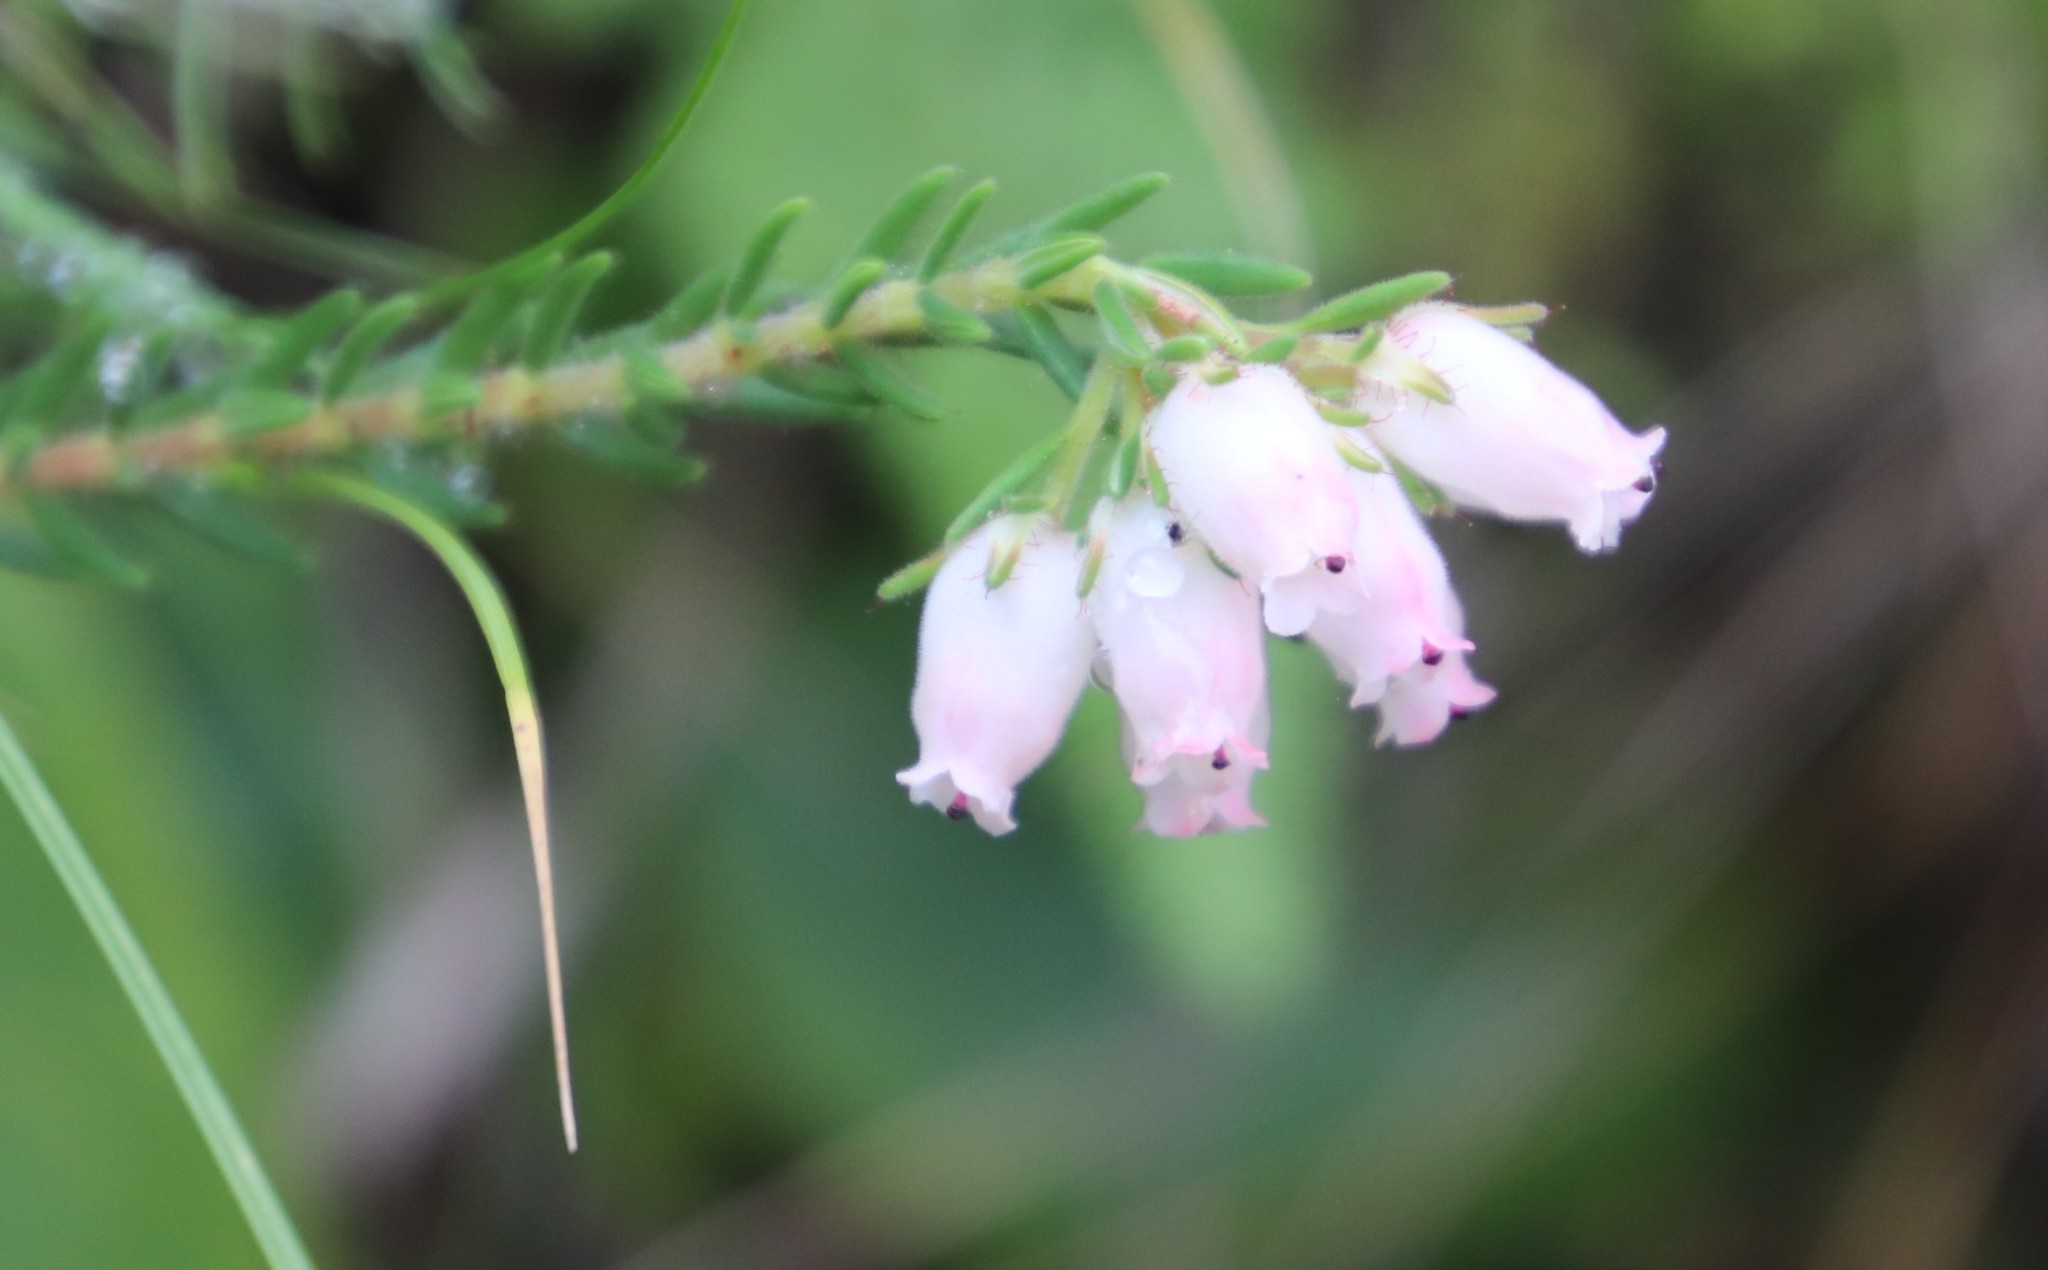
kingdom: Plantae
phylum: Tracheophyta
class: Magnoliopsida
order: Ericales
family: Ericaceae
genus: Erica
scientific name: Erica oatesii
